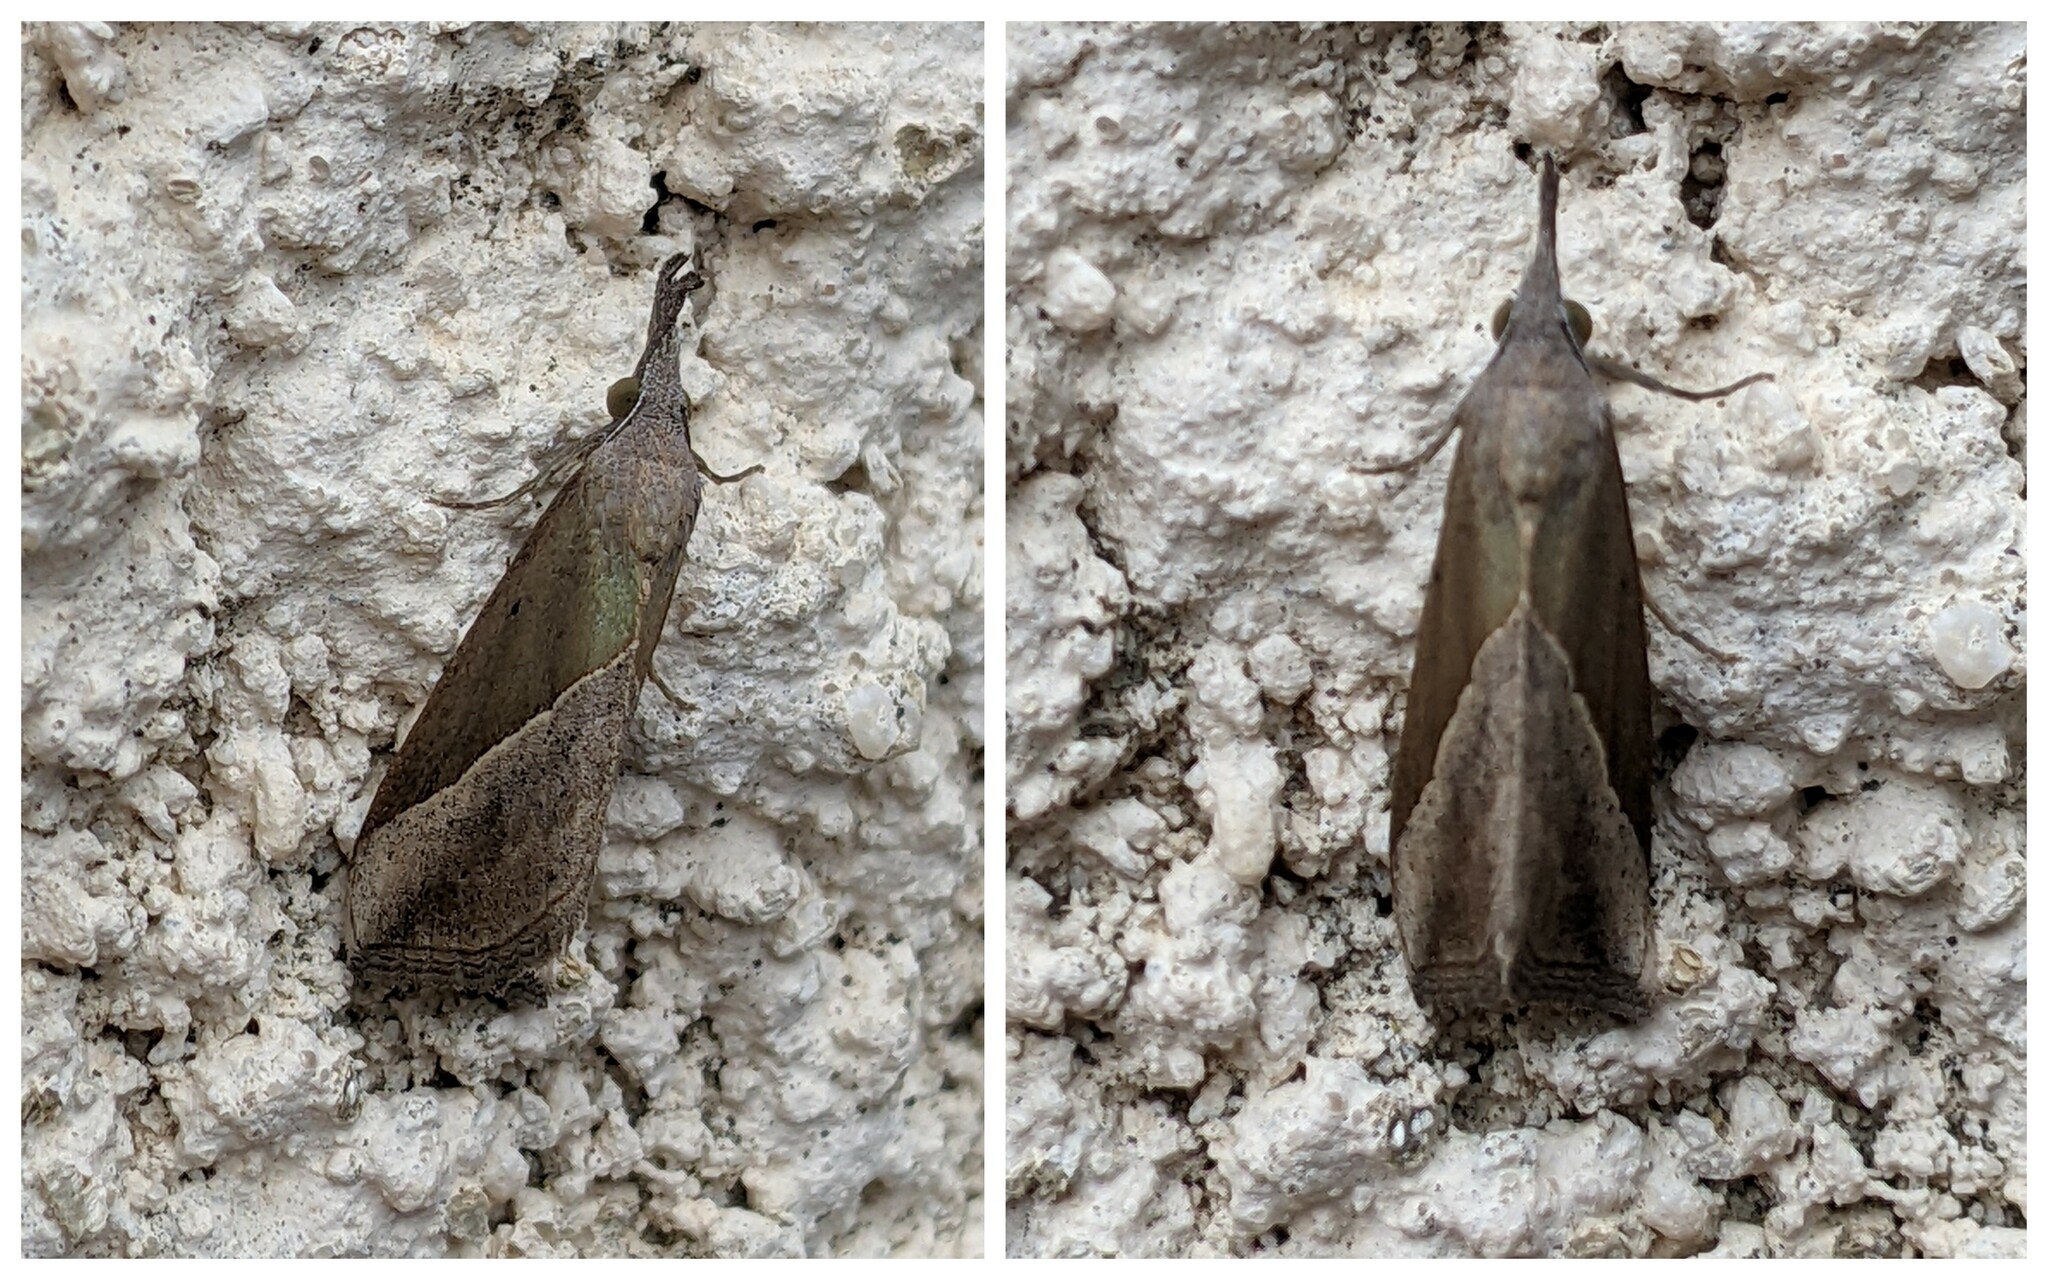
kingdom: Animalia
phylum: Arthropoda
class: Insecta
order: Lepidoptera
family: Erebidae
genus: Hypena
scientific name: Hypena lividalis
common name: Chevron snout
